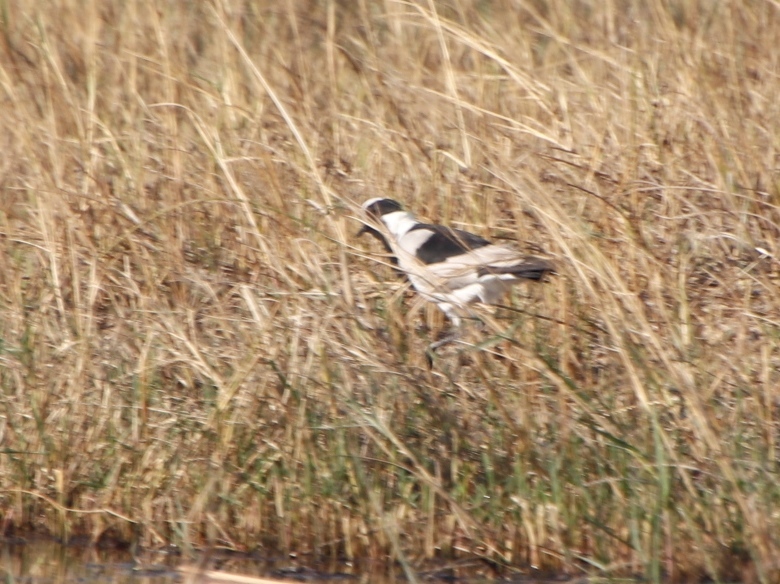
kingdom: Animalia
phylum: Chordata
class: Aves
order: Charadriiformes
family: Charadriidae
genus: Vanellus
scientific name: Vanellus armatus
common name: Blacksmith lapwing
